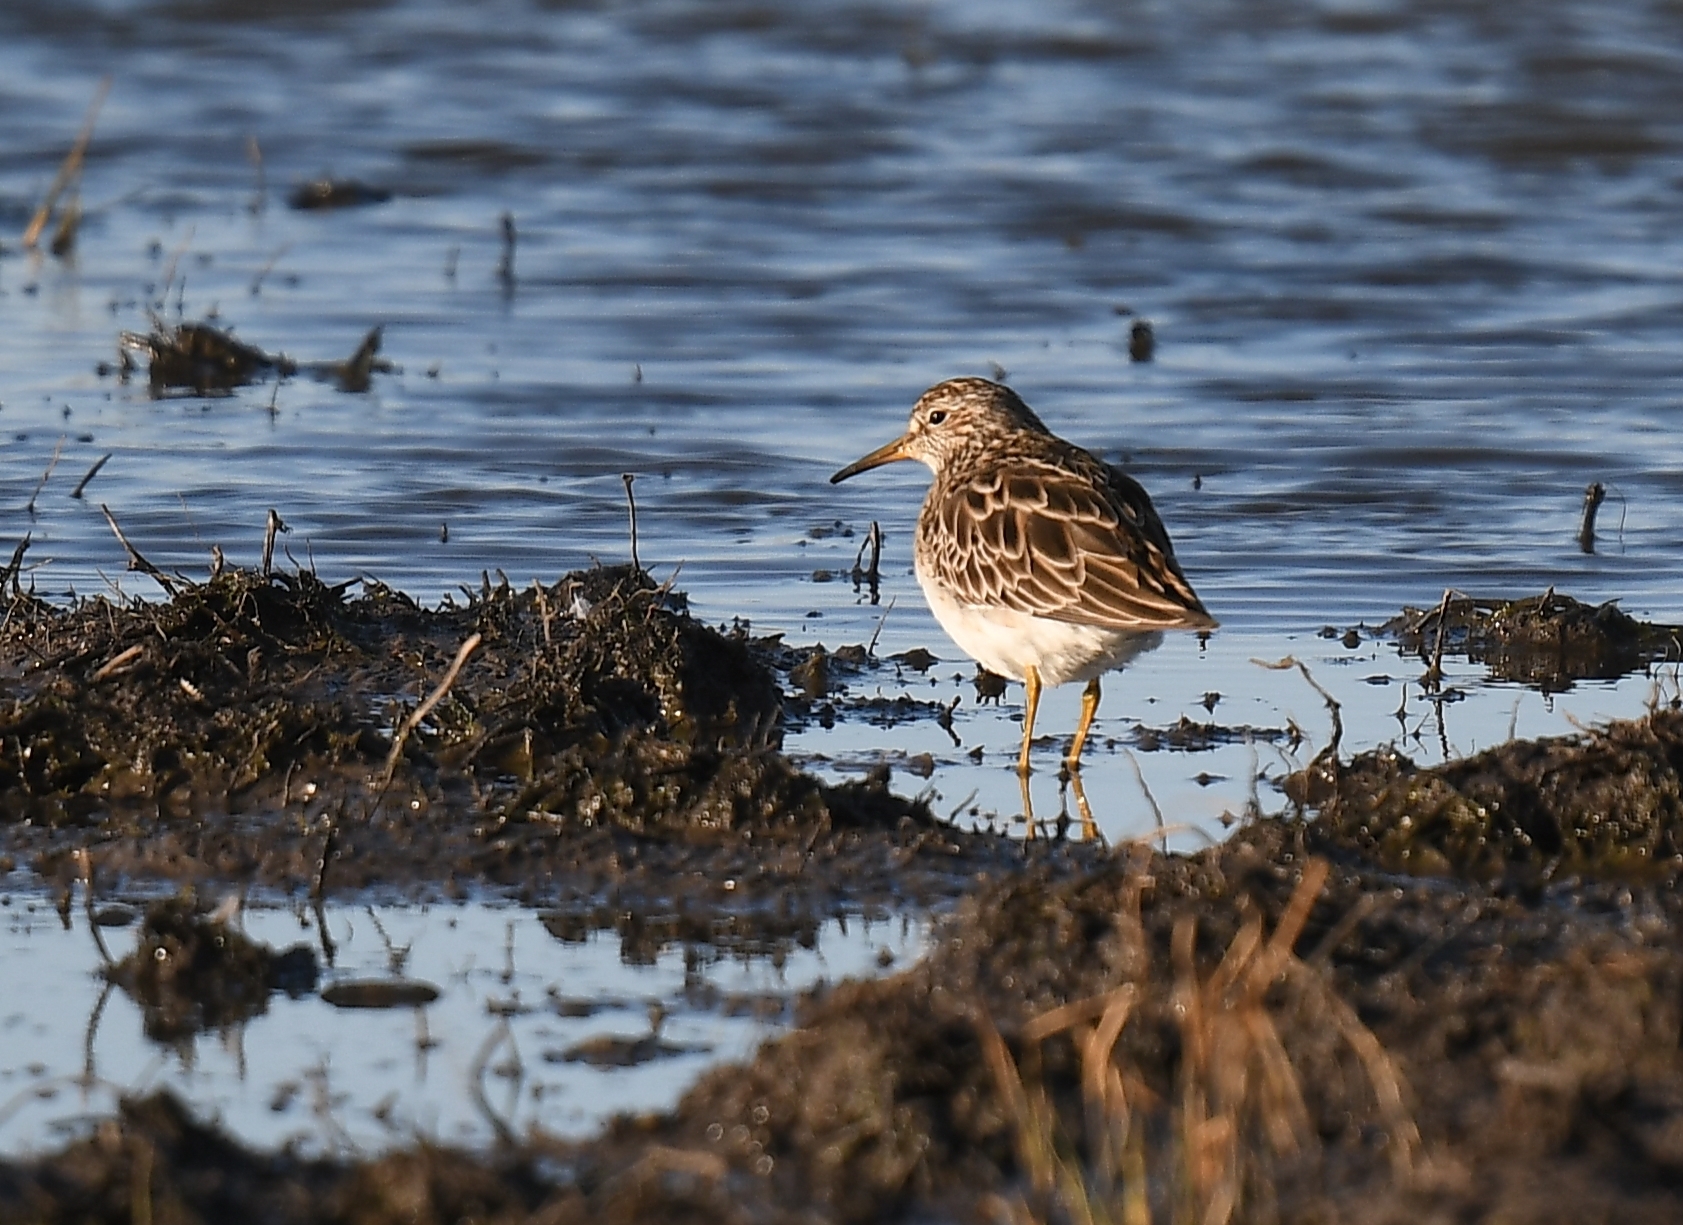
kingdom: Animalia
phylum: Chordata
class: Aves
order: Charadriiformes
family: Scolopacidae
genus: Calidris
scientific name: Calidris melanotos
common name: Pectoral sandpiper
